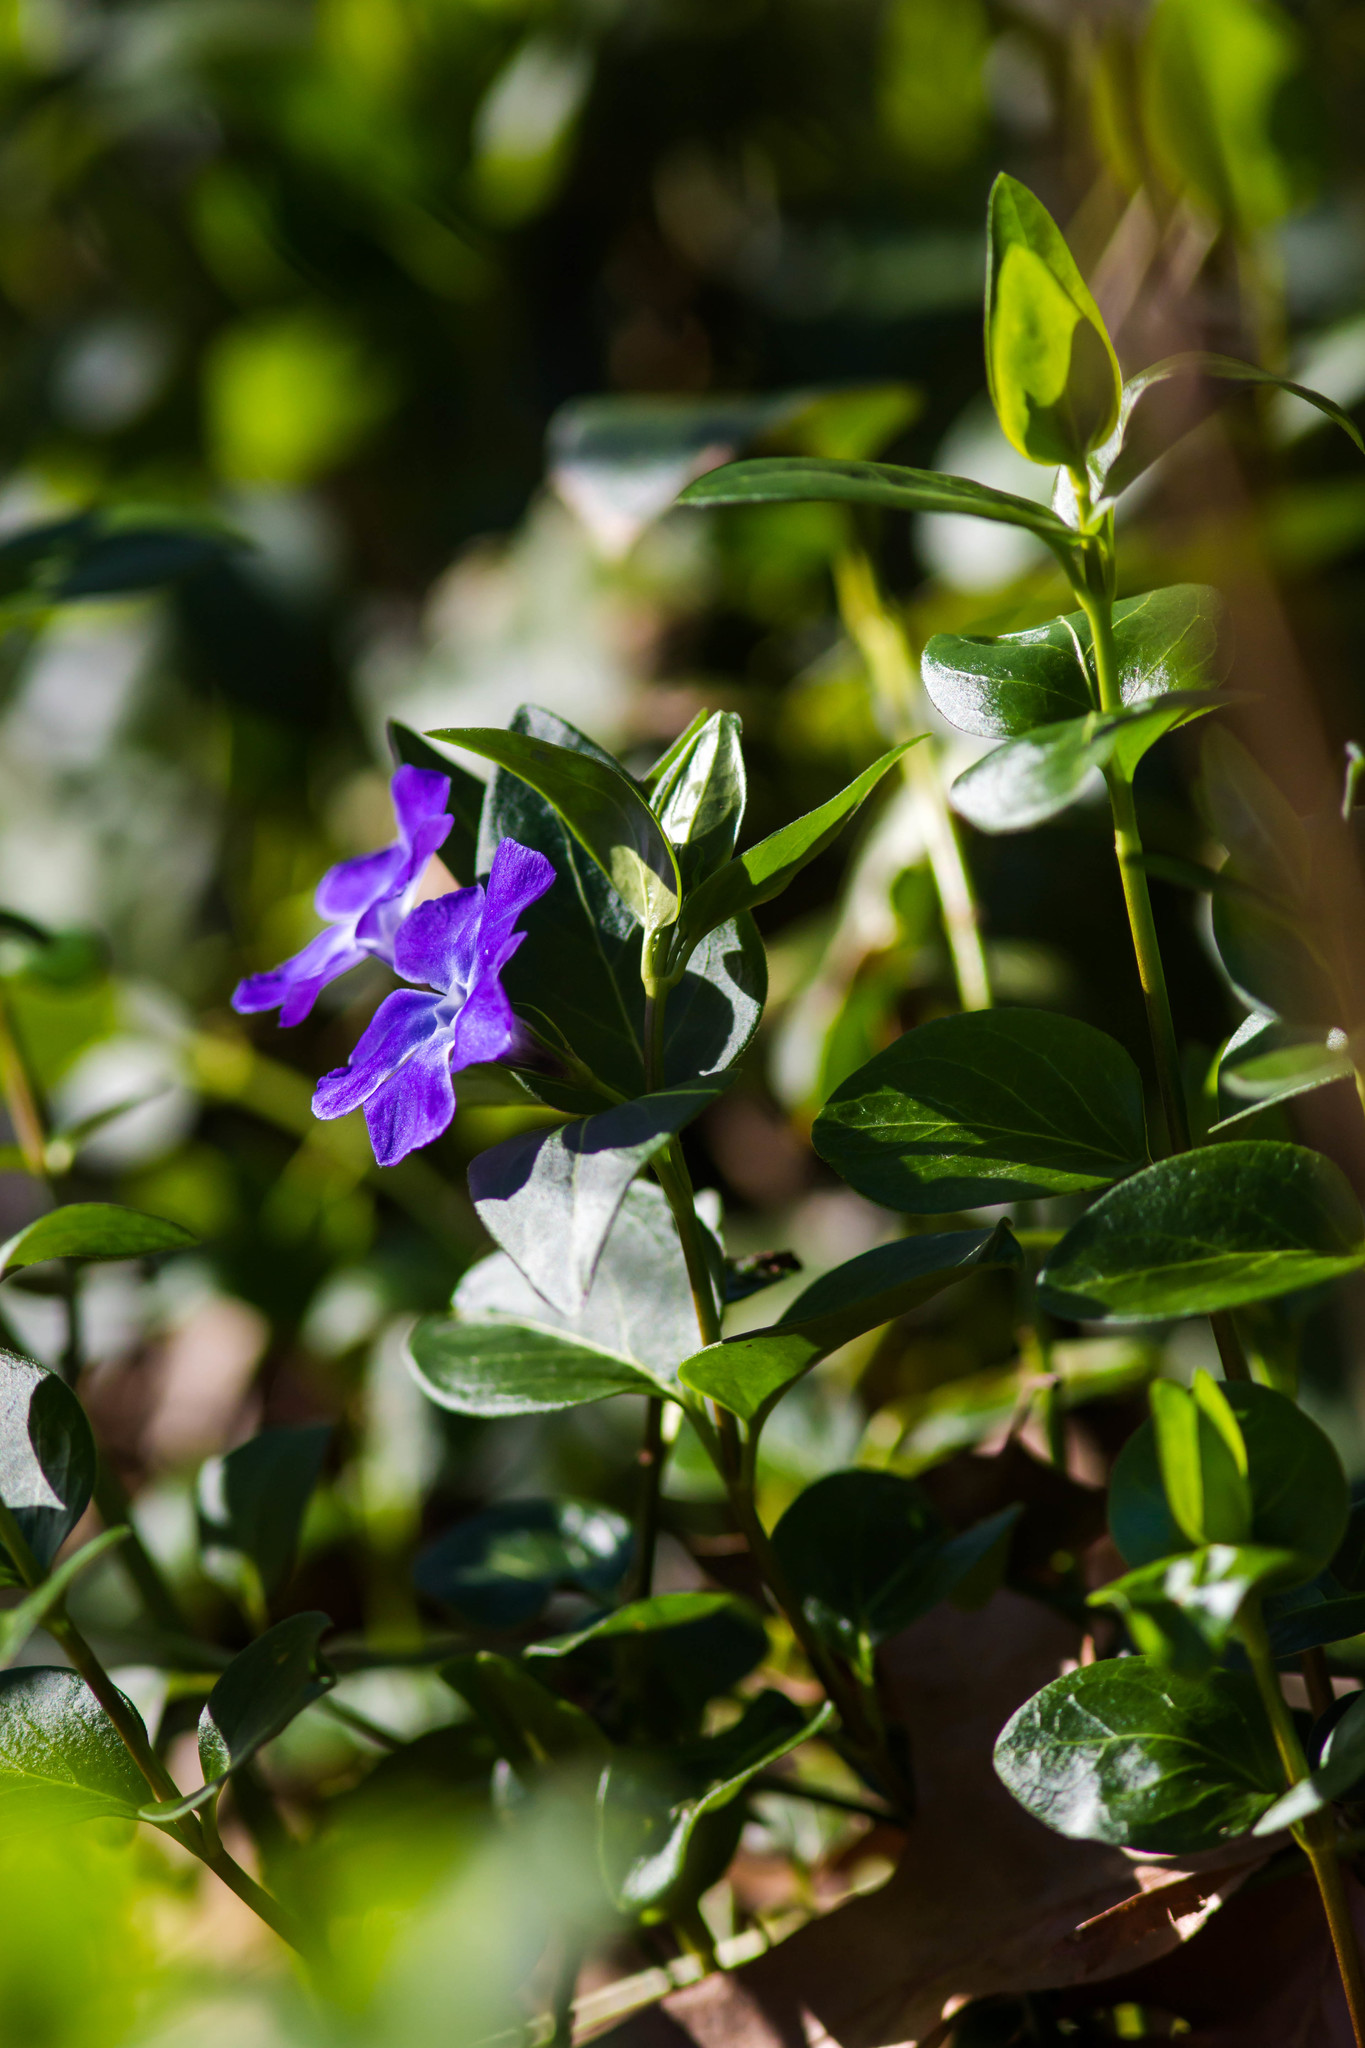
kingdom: Plantae
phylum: Tracheophyta
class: Magnoliopsida
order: Gentianales
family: Apocynaceae
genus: Vinca
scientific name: Vinca major
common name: Greater periwinkle
